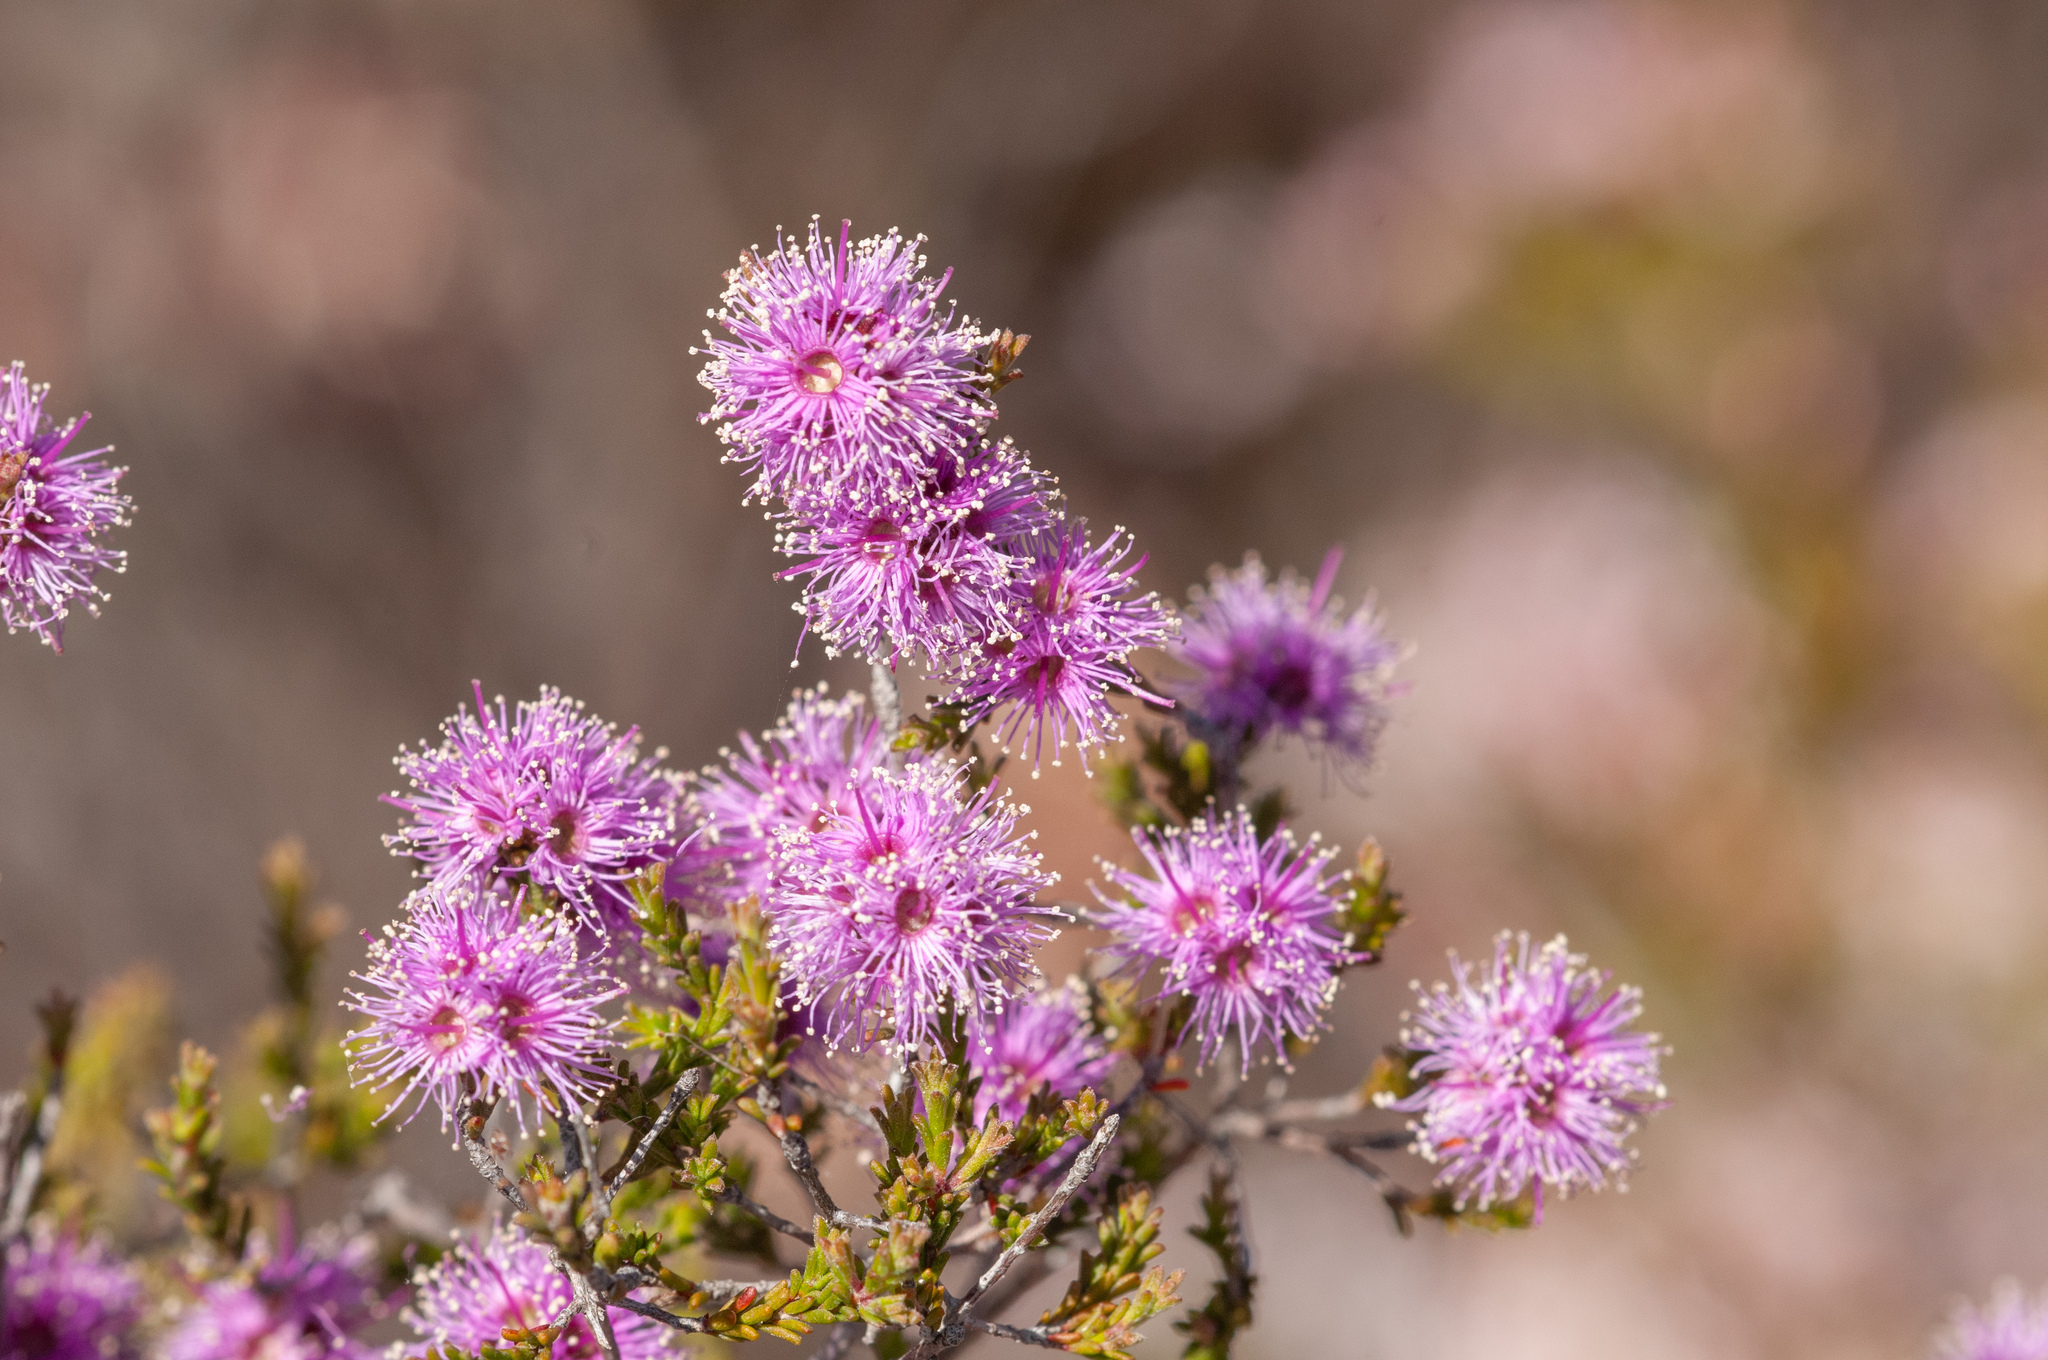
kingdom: Plantae
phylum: Tracheophyta
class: Magnoliopsida
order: Myrtales
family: Myrtaceae
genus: Melaleuca
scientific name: Melaleuca decussata
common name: Cross-leaf honey myrtle
